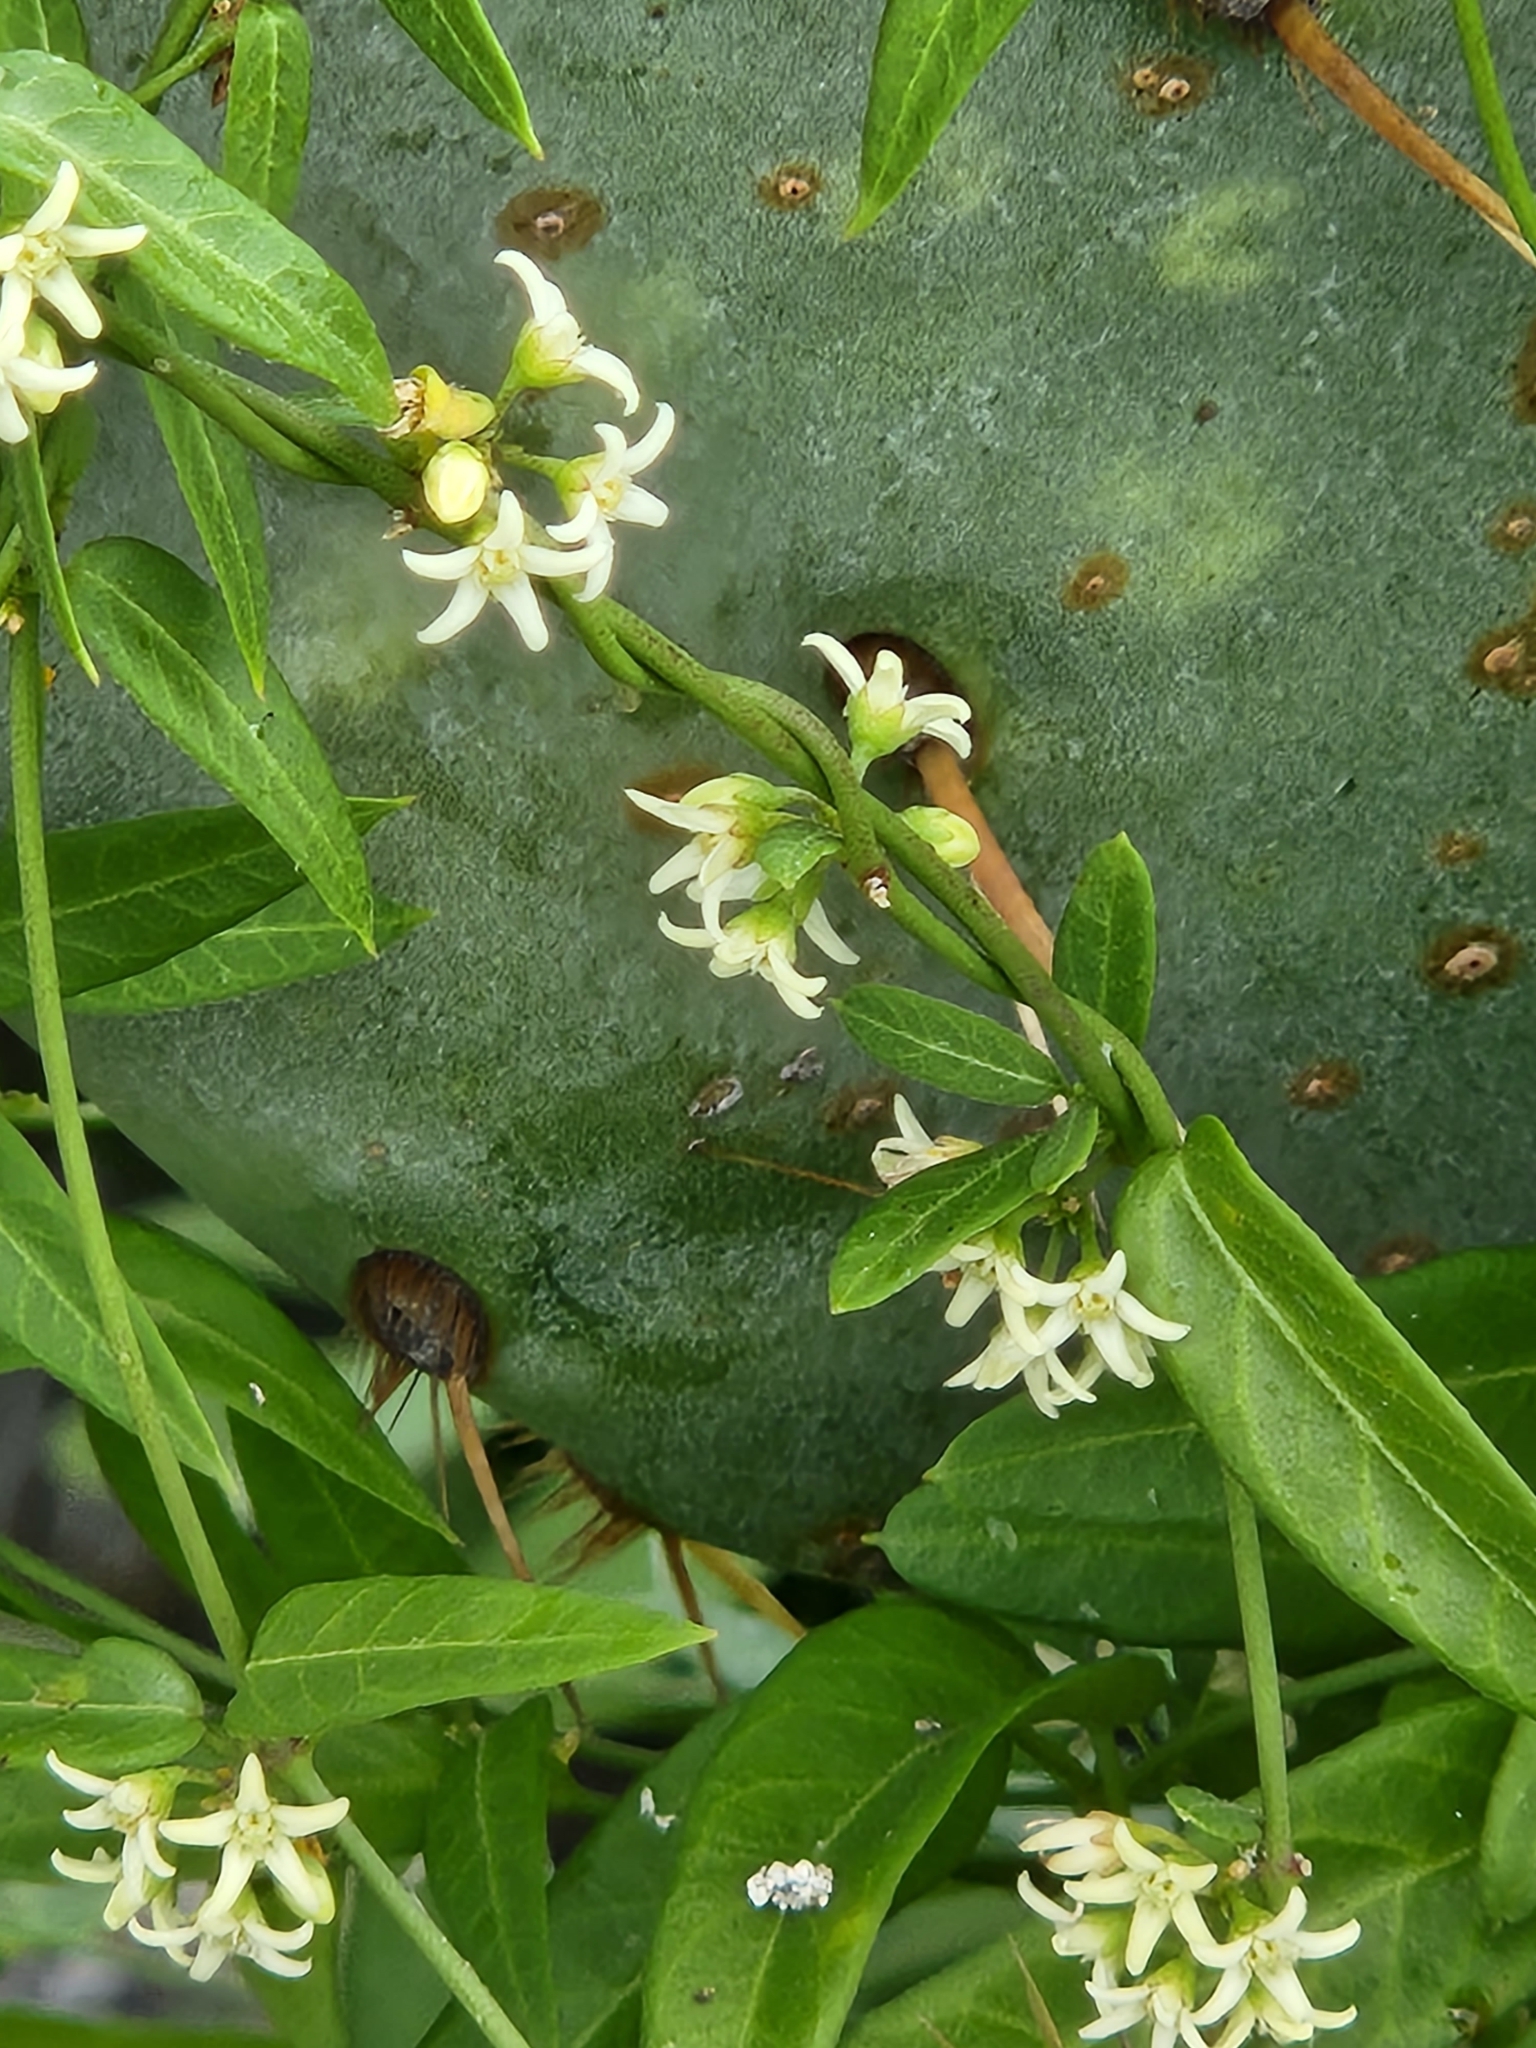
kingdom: Plantae
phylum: Tracheophyta
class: Magnoliopsida
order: Gentianales
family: Apocynaceae
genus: Metastelma
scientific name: Metastelma palmeri
